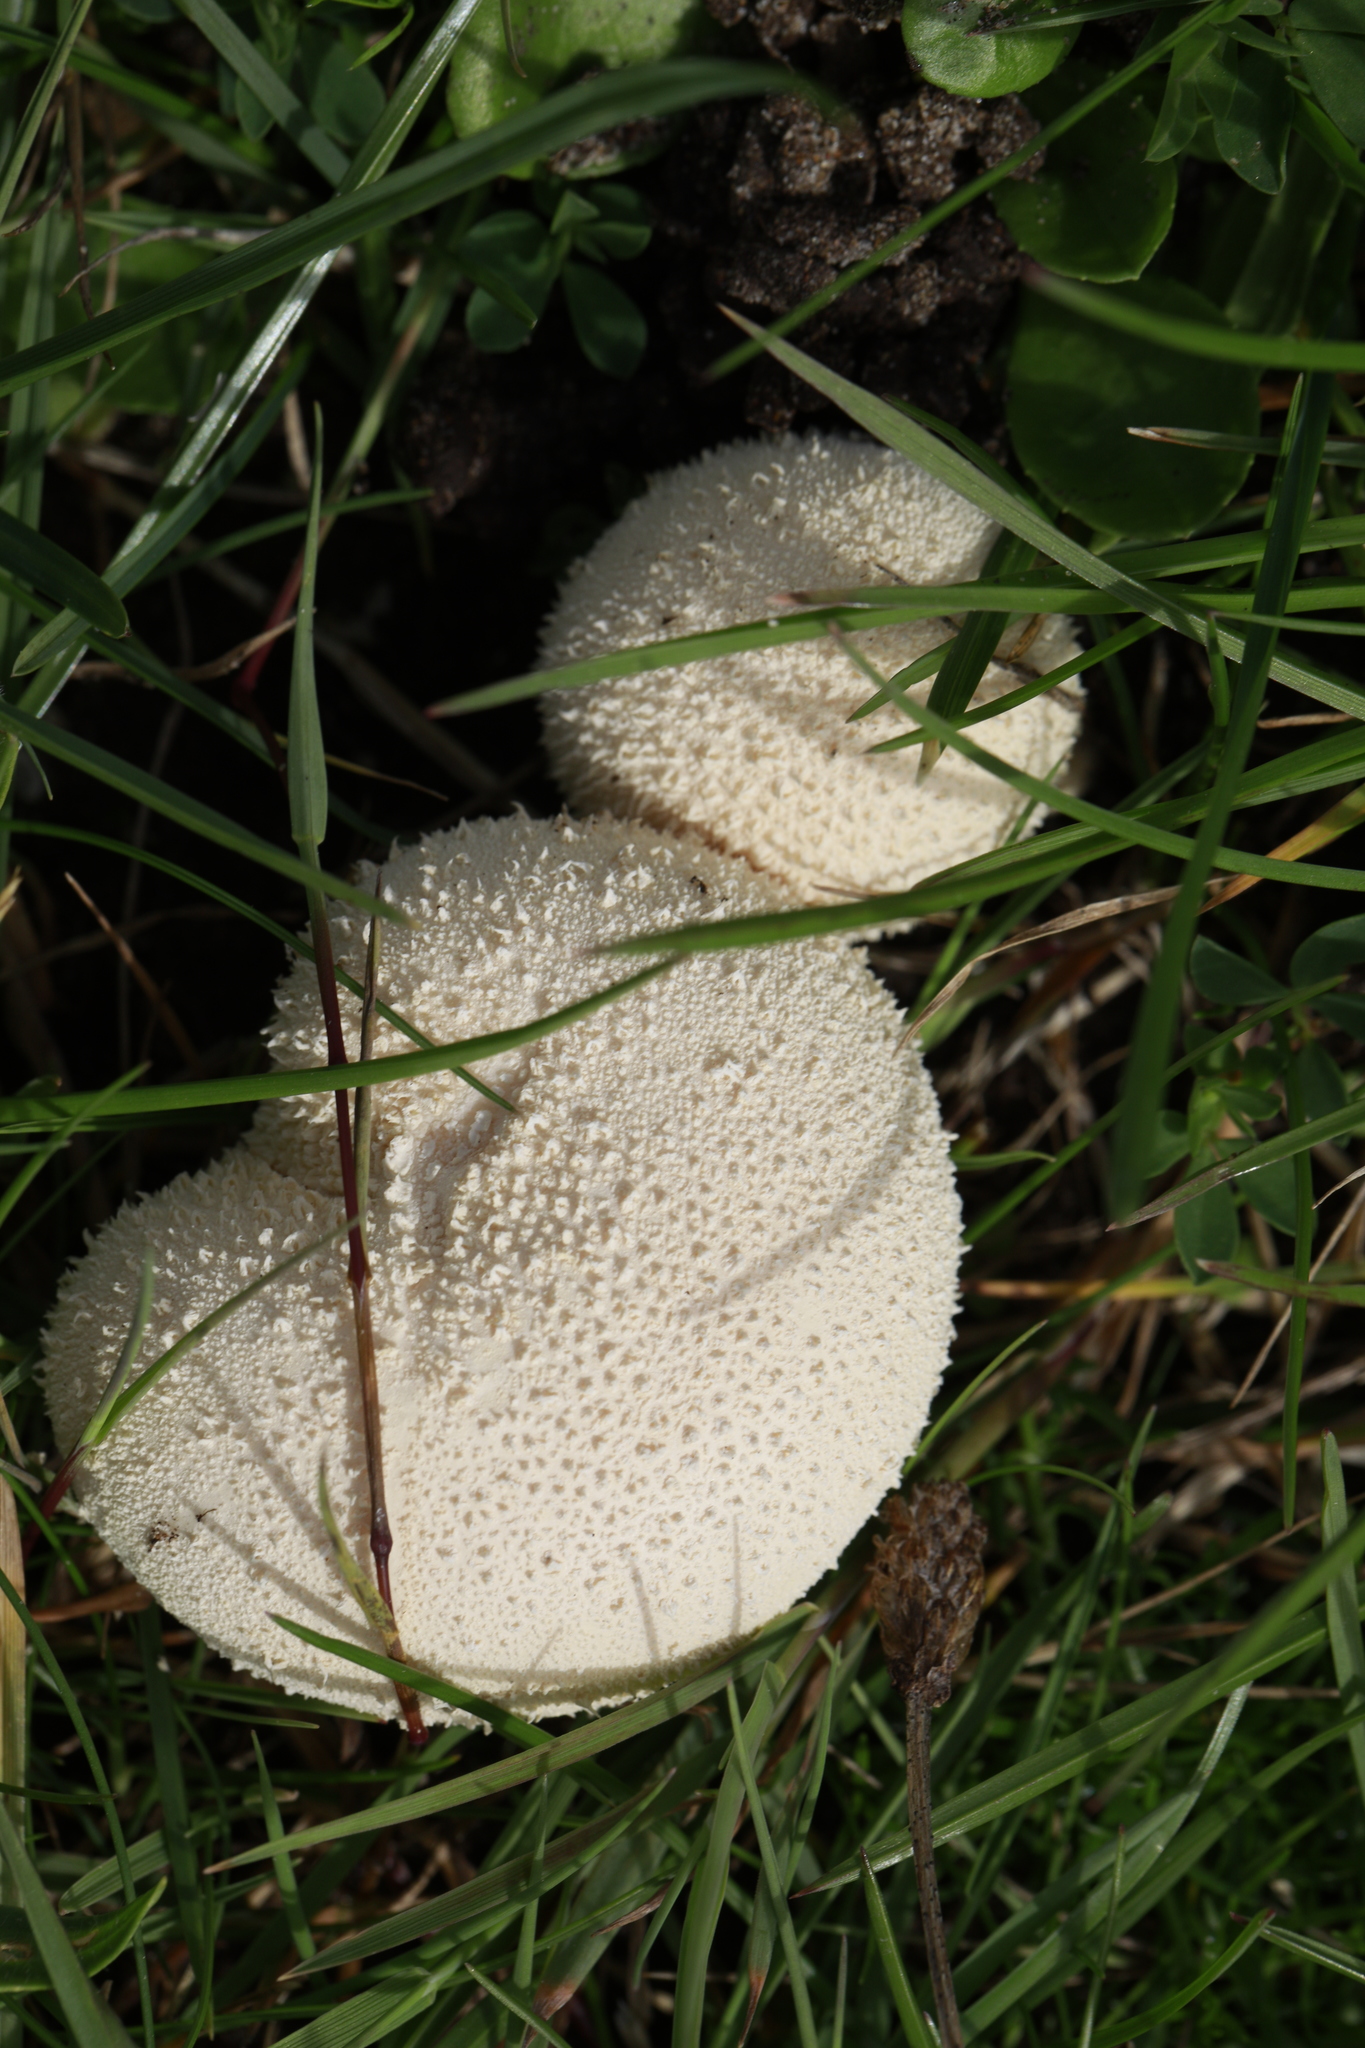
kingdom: Fungi
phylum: Basidiomycota
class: Agaricomycetes
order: Agaricales
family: Lycoperdaceae
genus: Lycoperdon
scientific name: Lycoperdon perlatum
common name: Common puffball
